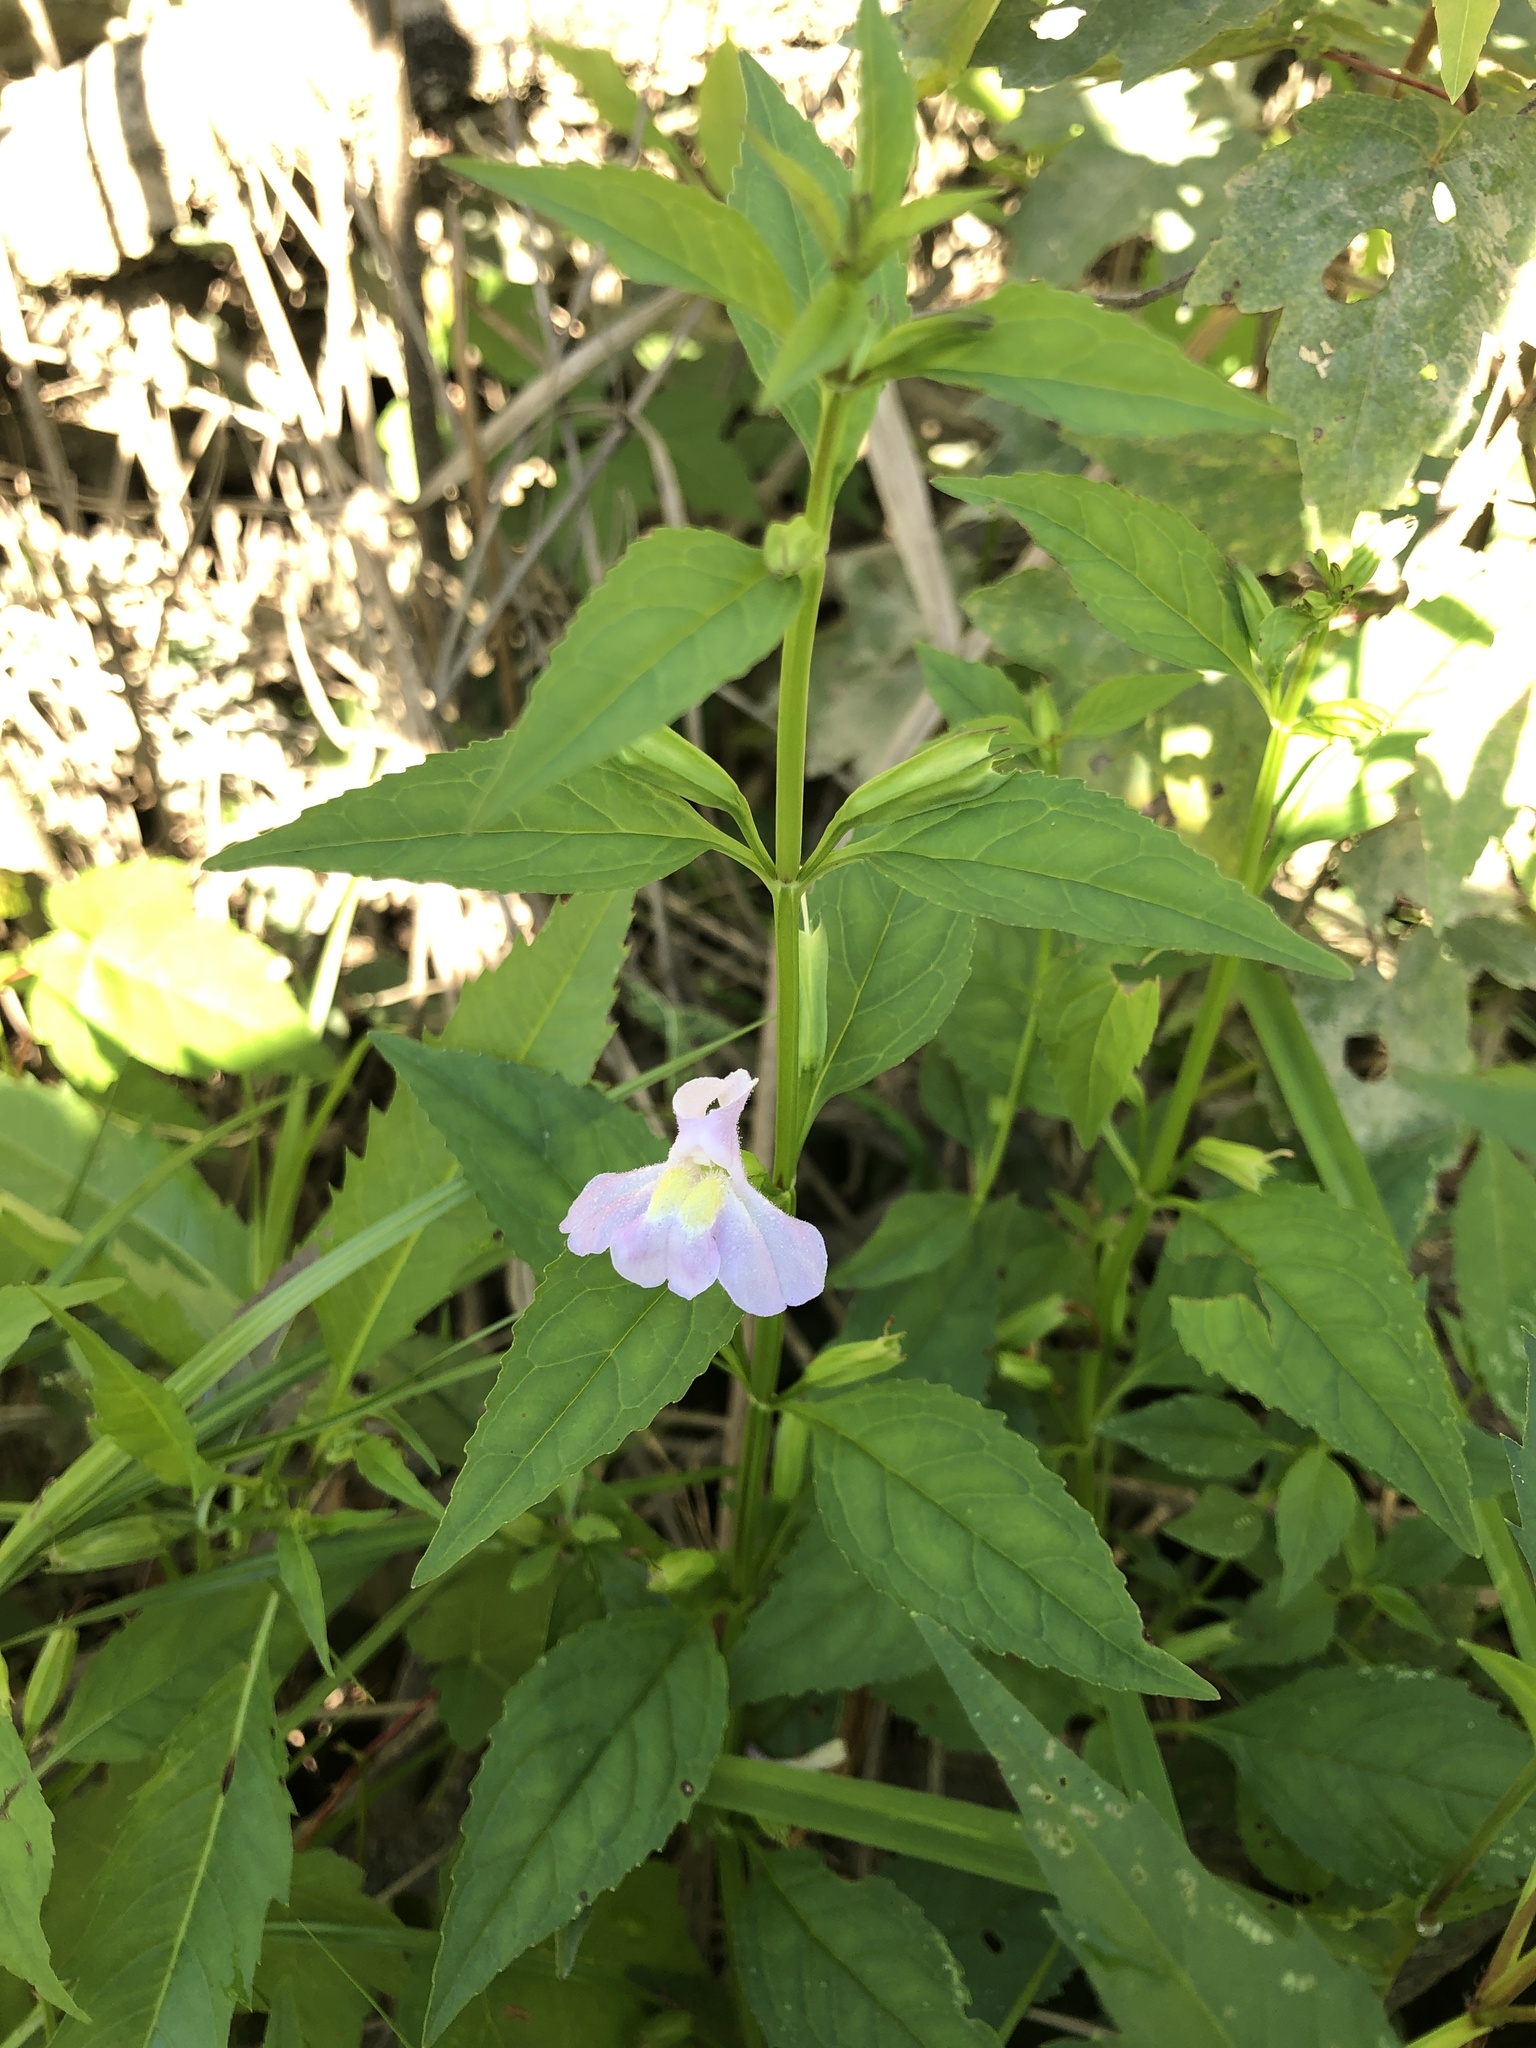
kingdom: Plantae
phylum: Tracheophyta
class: Magnoliopsida
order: Lamiales
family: Phrymaceae
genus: Mimulus
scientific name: Mimulus alatus
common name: Sharp-wing monkey-flower
